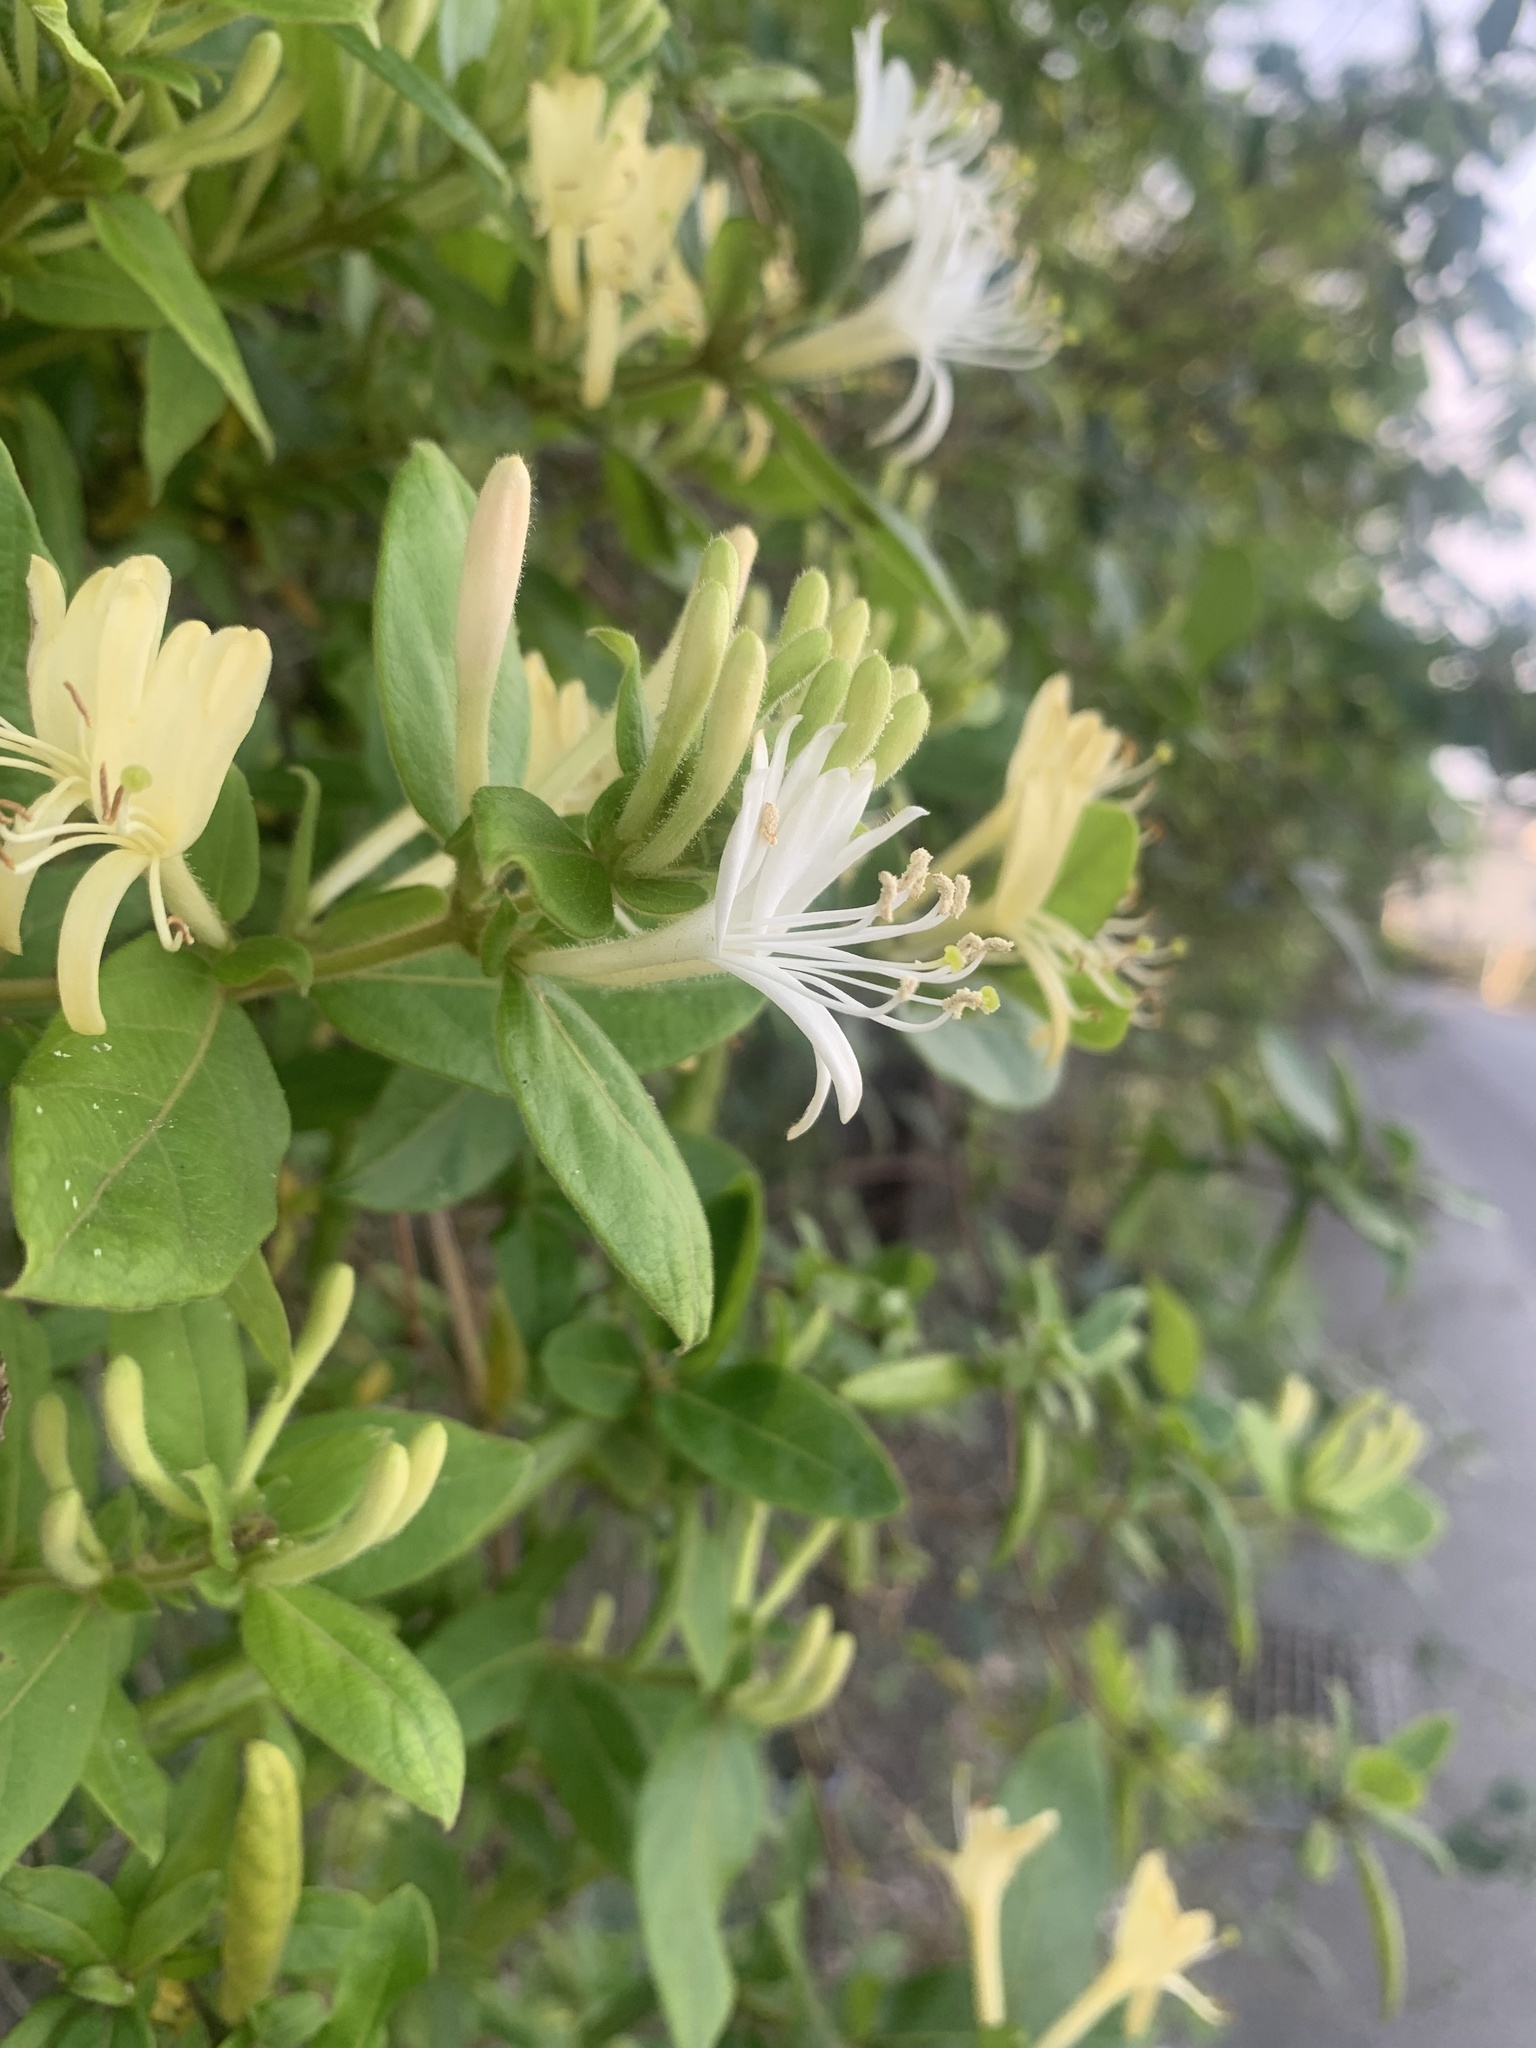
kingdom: Plantae
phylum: Tracheophyta
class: Magnoliopsida
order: Dipsacales
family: Caprifoliaceae
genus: Lonicera
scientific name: Lonicera japonica
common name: Japanese honeysuckle
